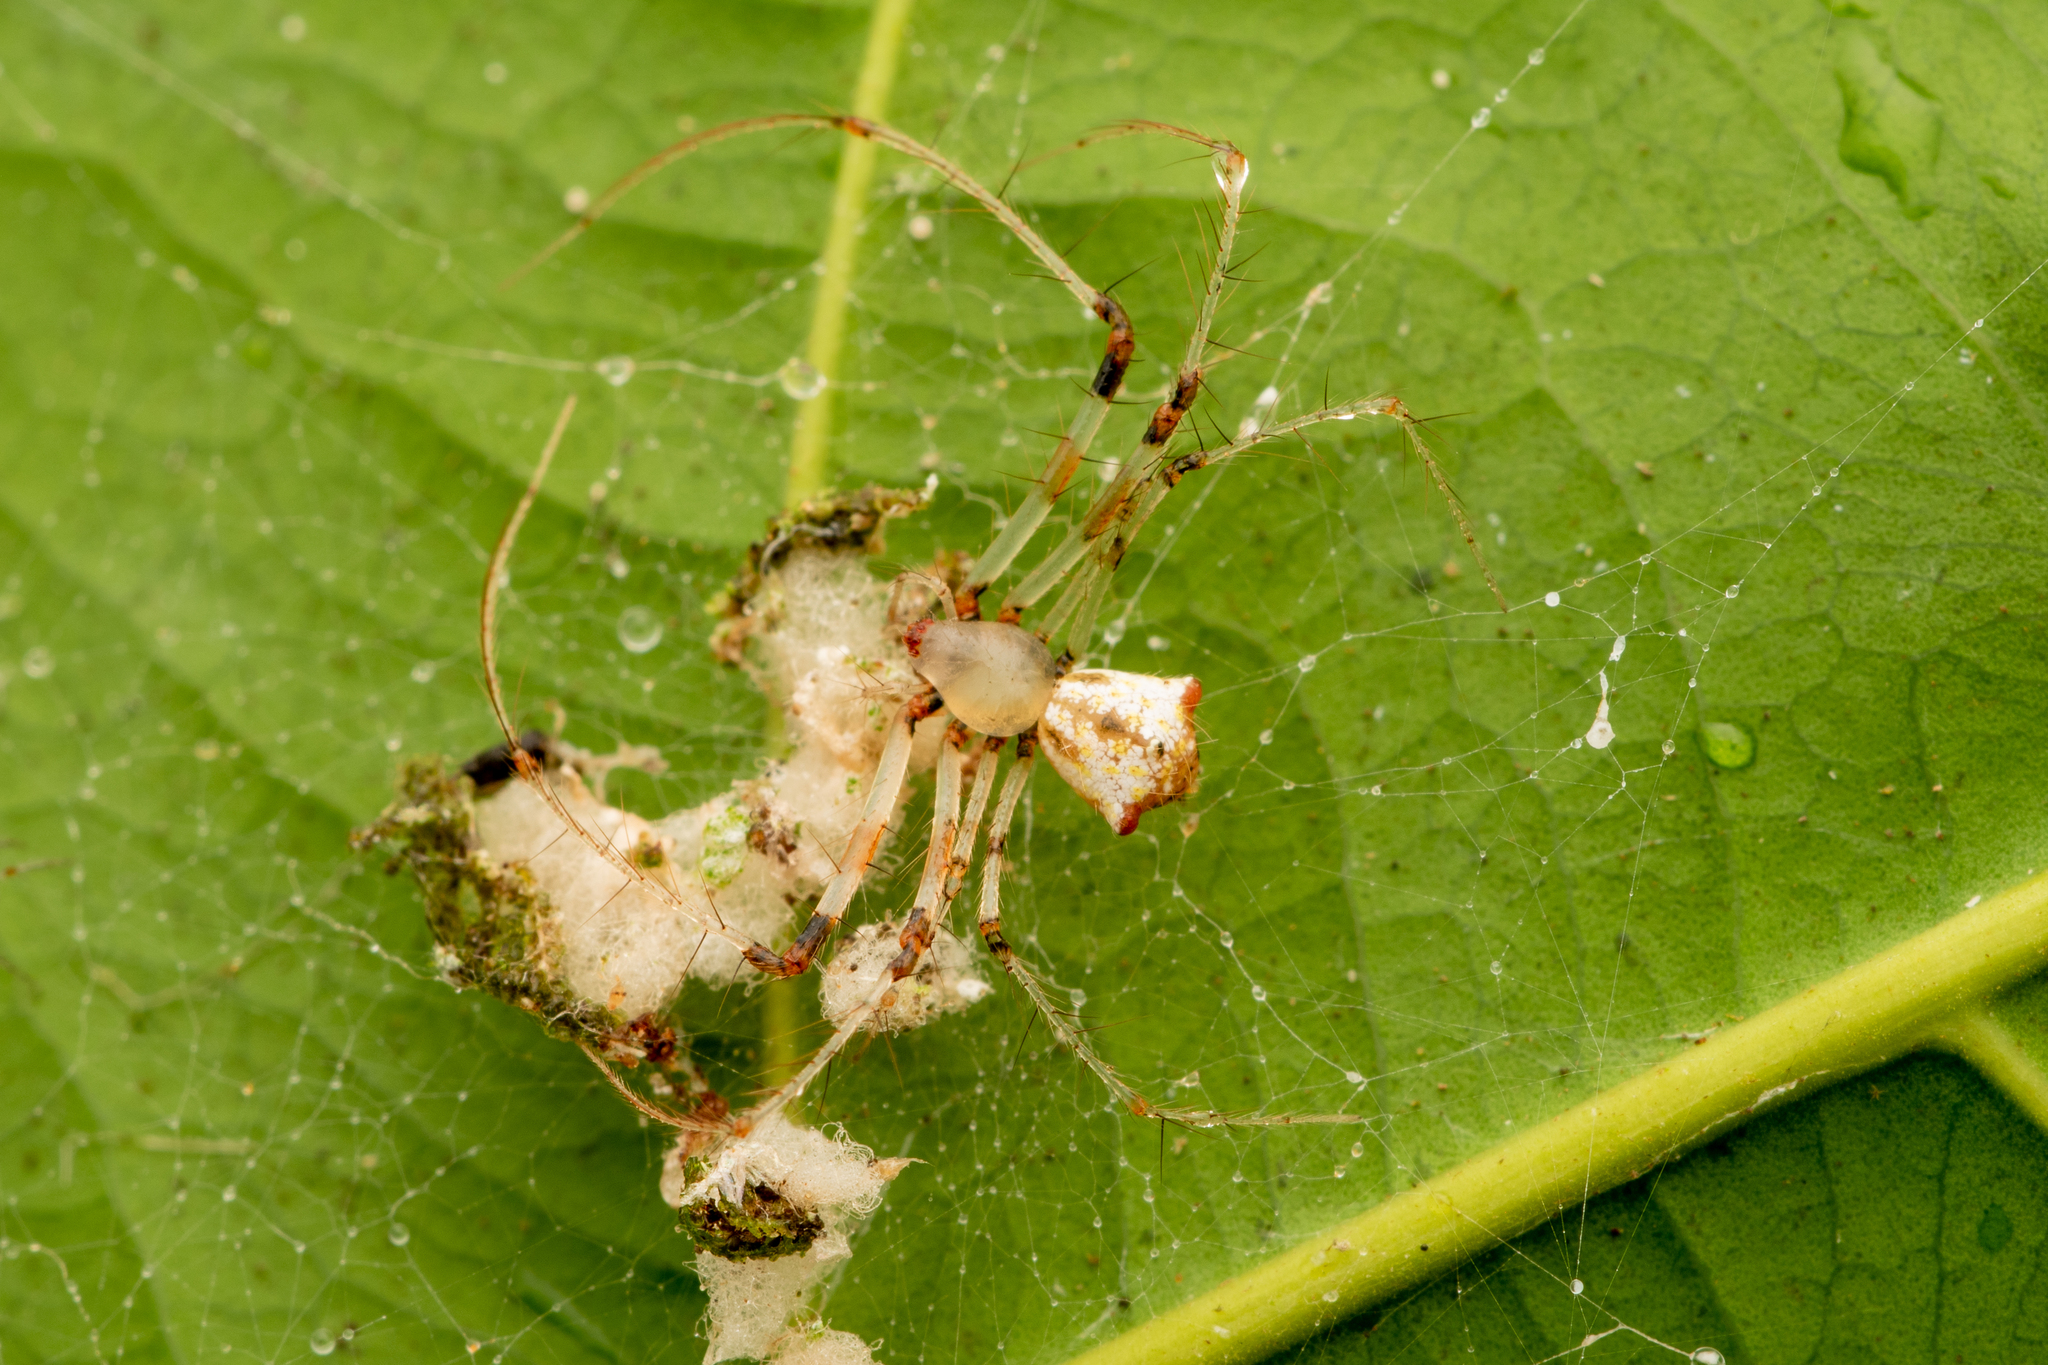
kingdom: Animalia
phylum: Arthropoda
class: Arachnida
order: Araneae
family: Mimetidae
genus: Mimetus
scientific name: Mimetus trituberculatus
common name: Pirate spiders
